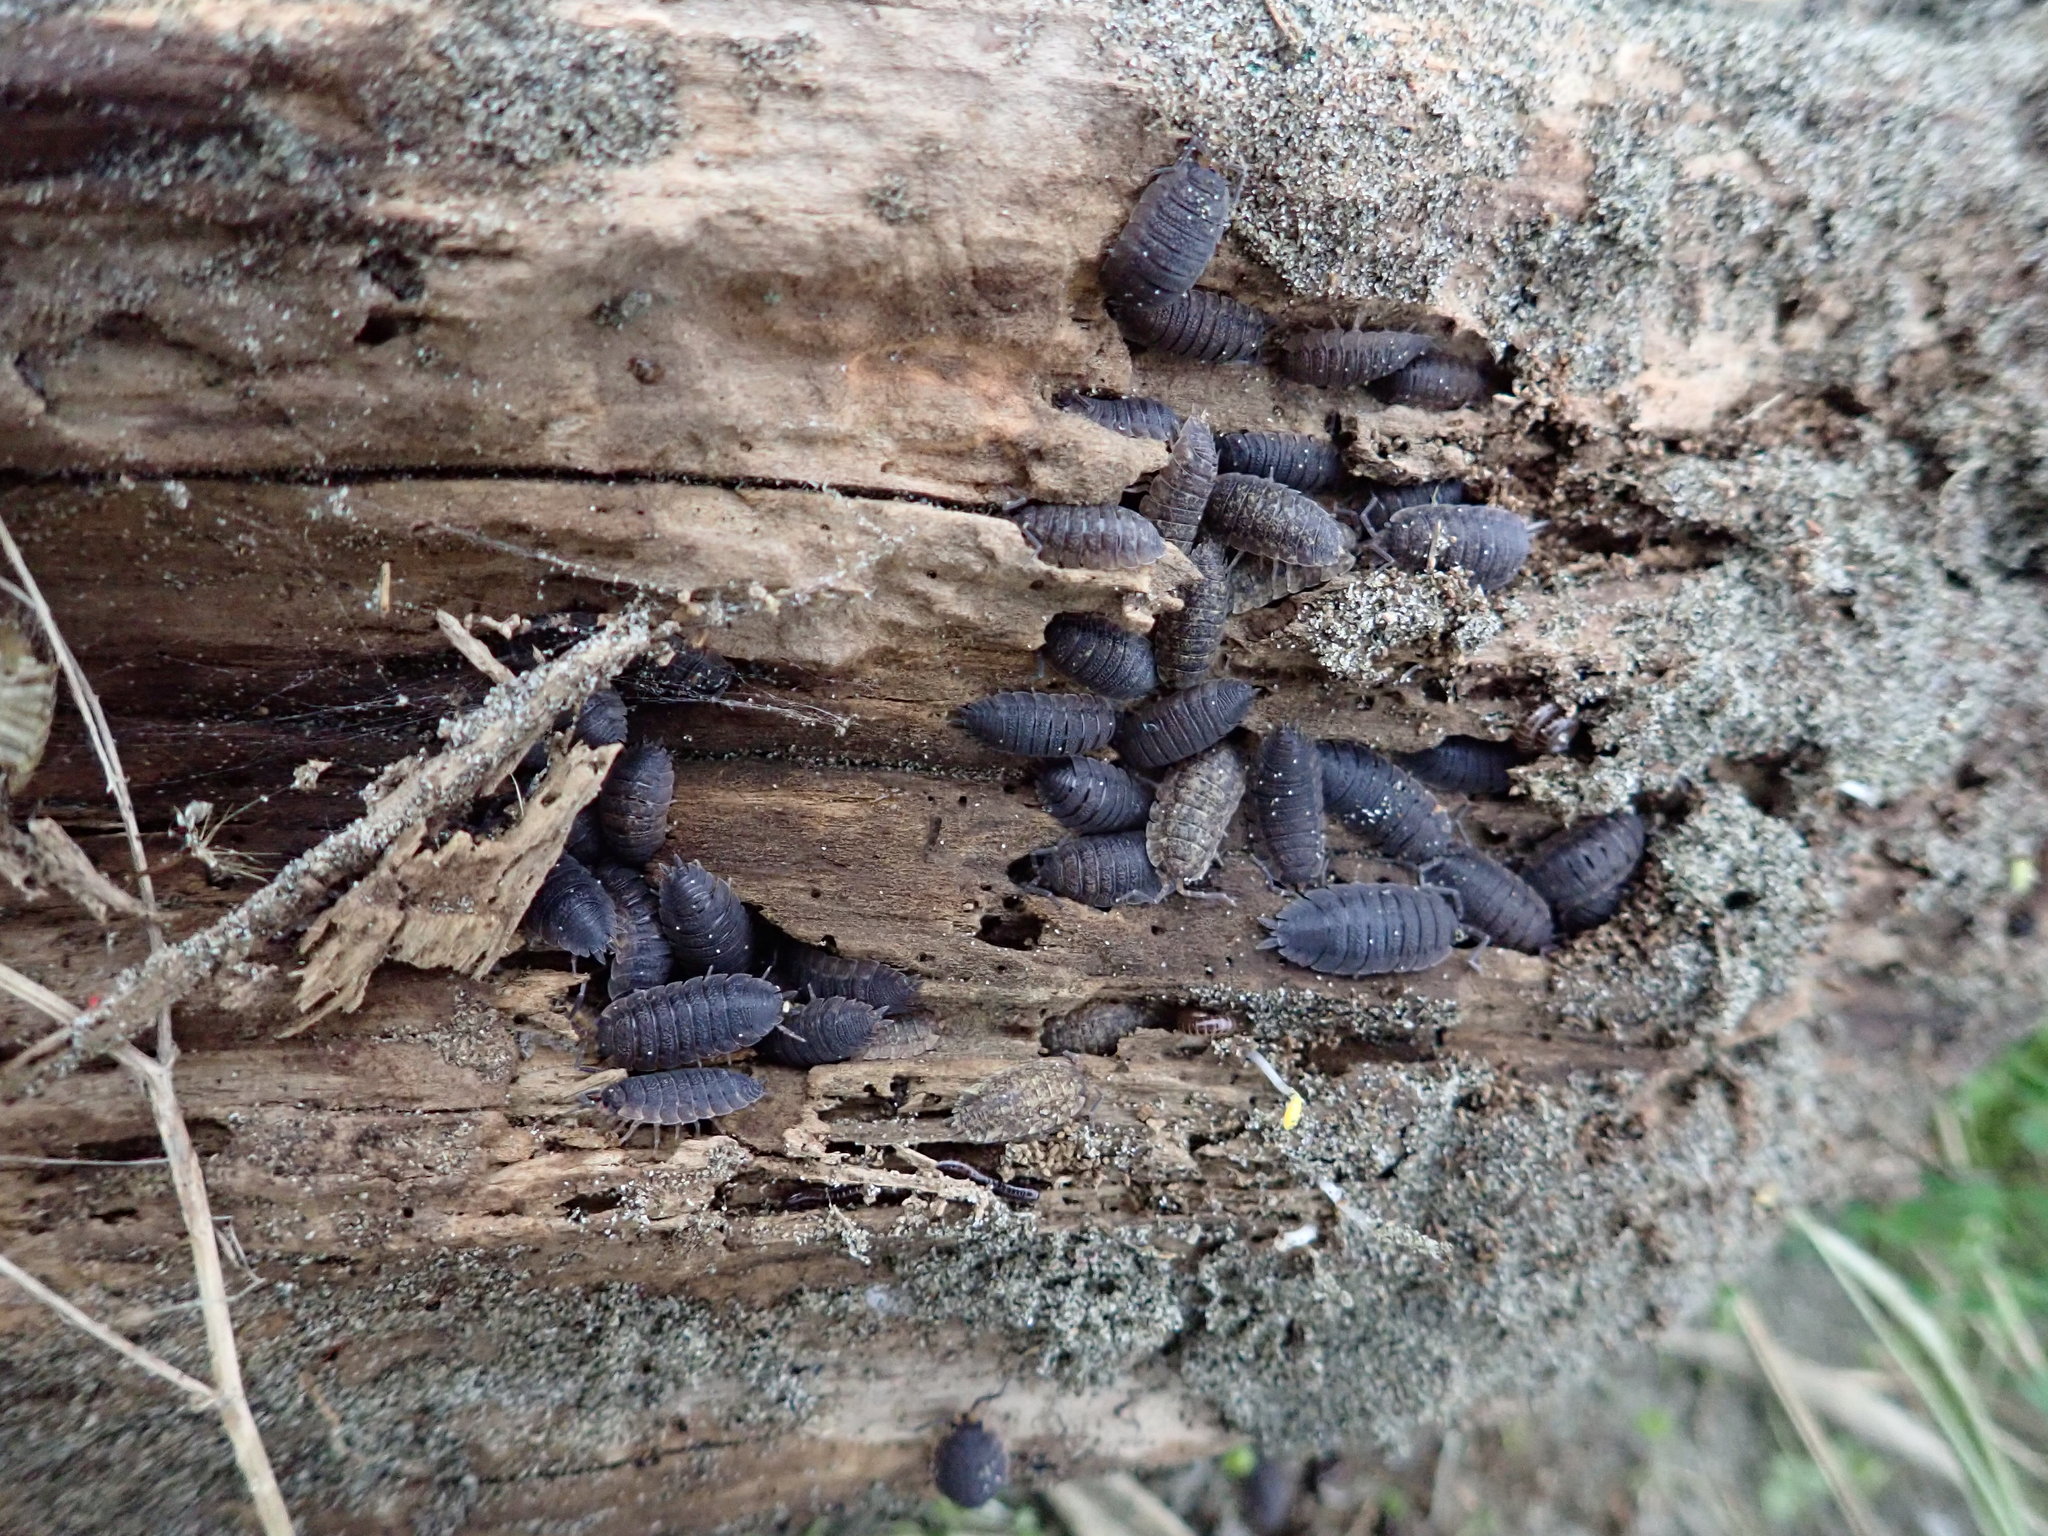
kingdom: Animalia
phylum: Arthropoda
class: Malacostraca
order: Isopoda
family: Porcellionidae
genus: Porcellio
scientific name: Porcellio scaber
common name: Common rough woodlouse
